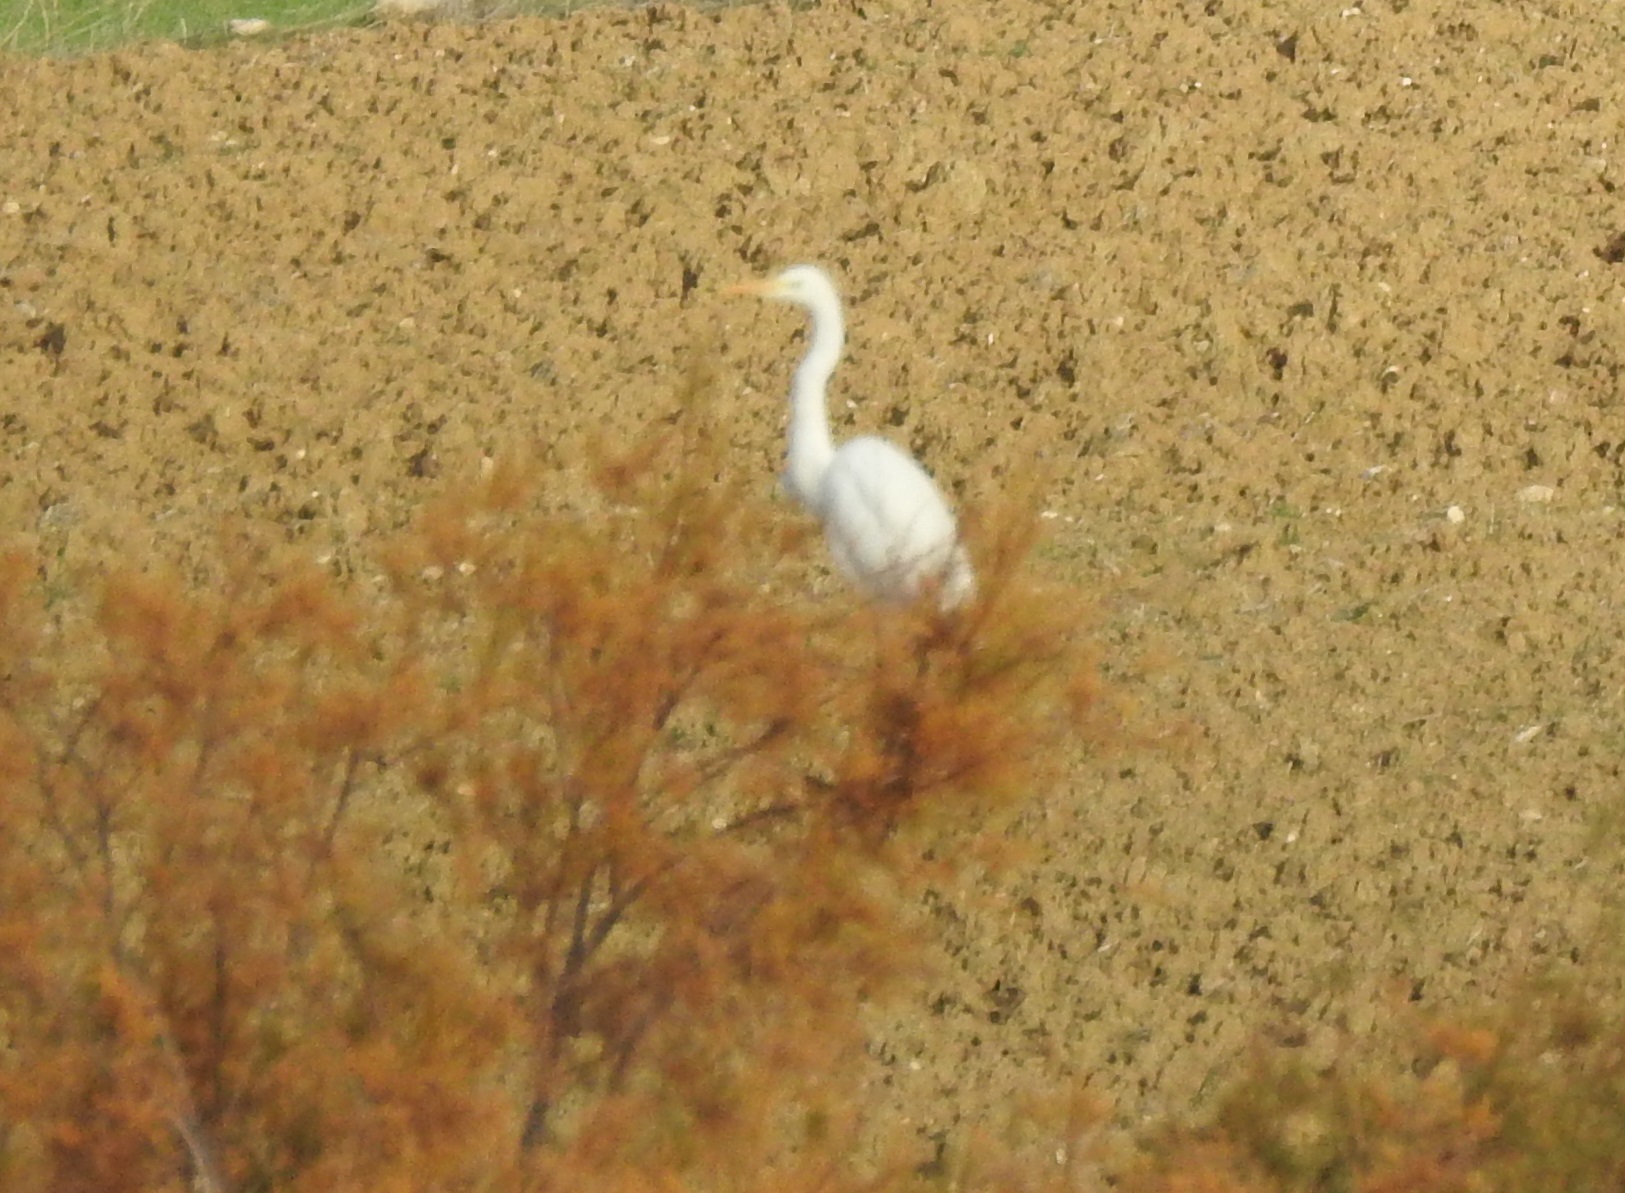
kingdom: Animalia
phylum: Chordata
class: Aves
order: Pelecaniformes
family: Ardeidae
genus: Ardea
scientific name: Ardea alba
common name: Great egret
